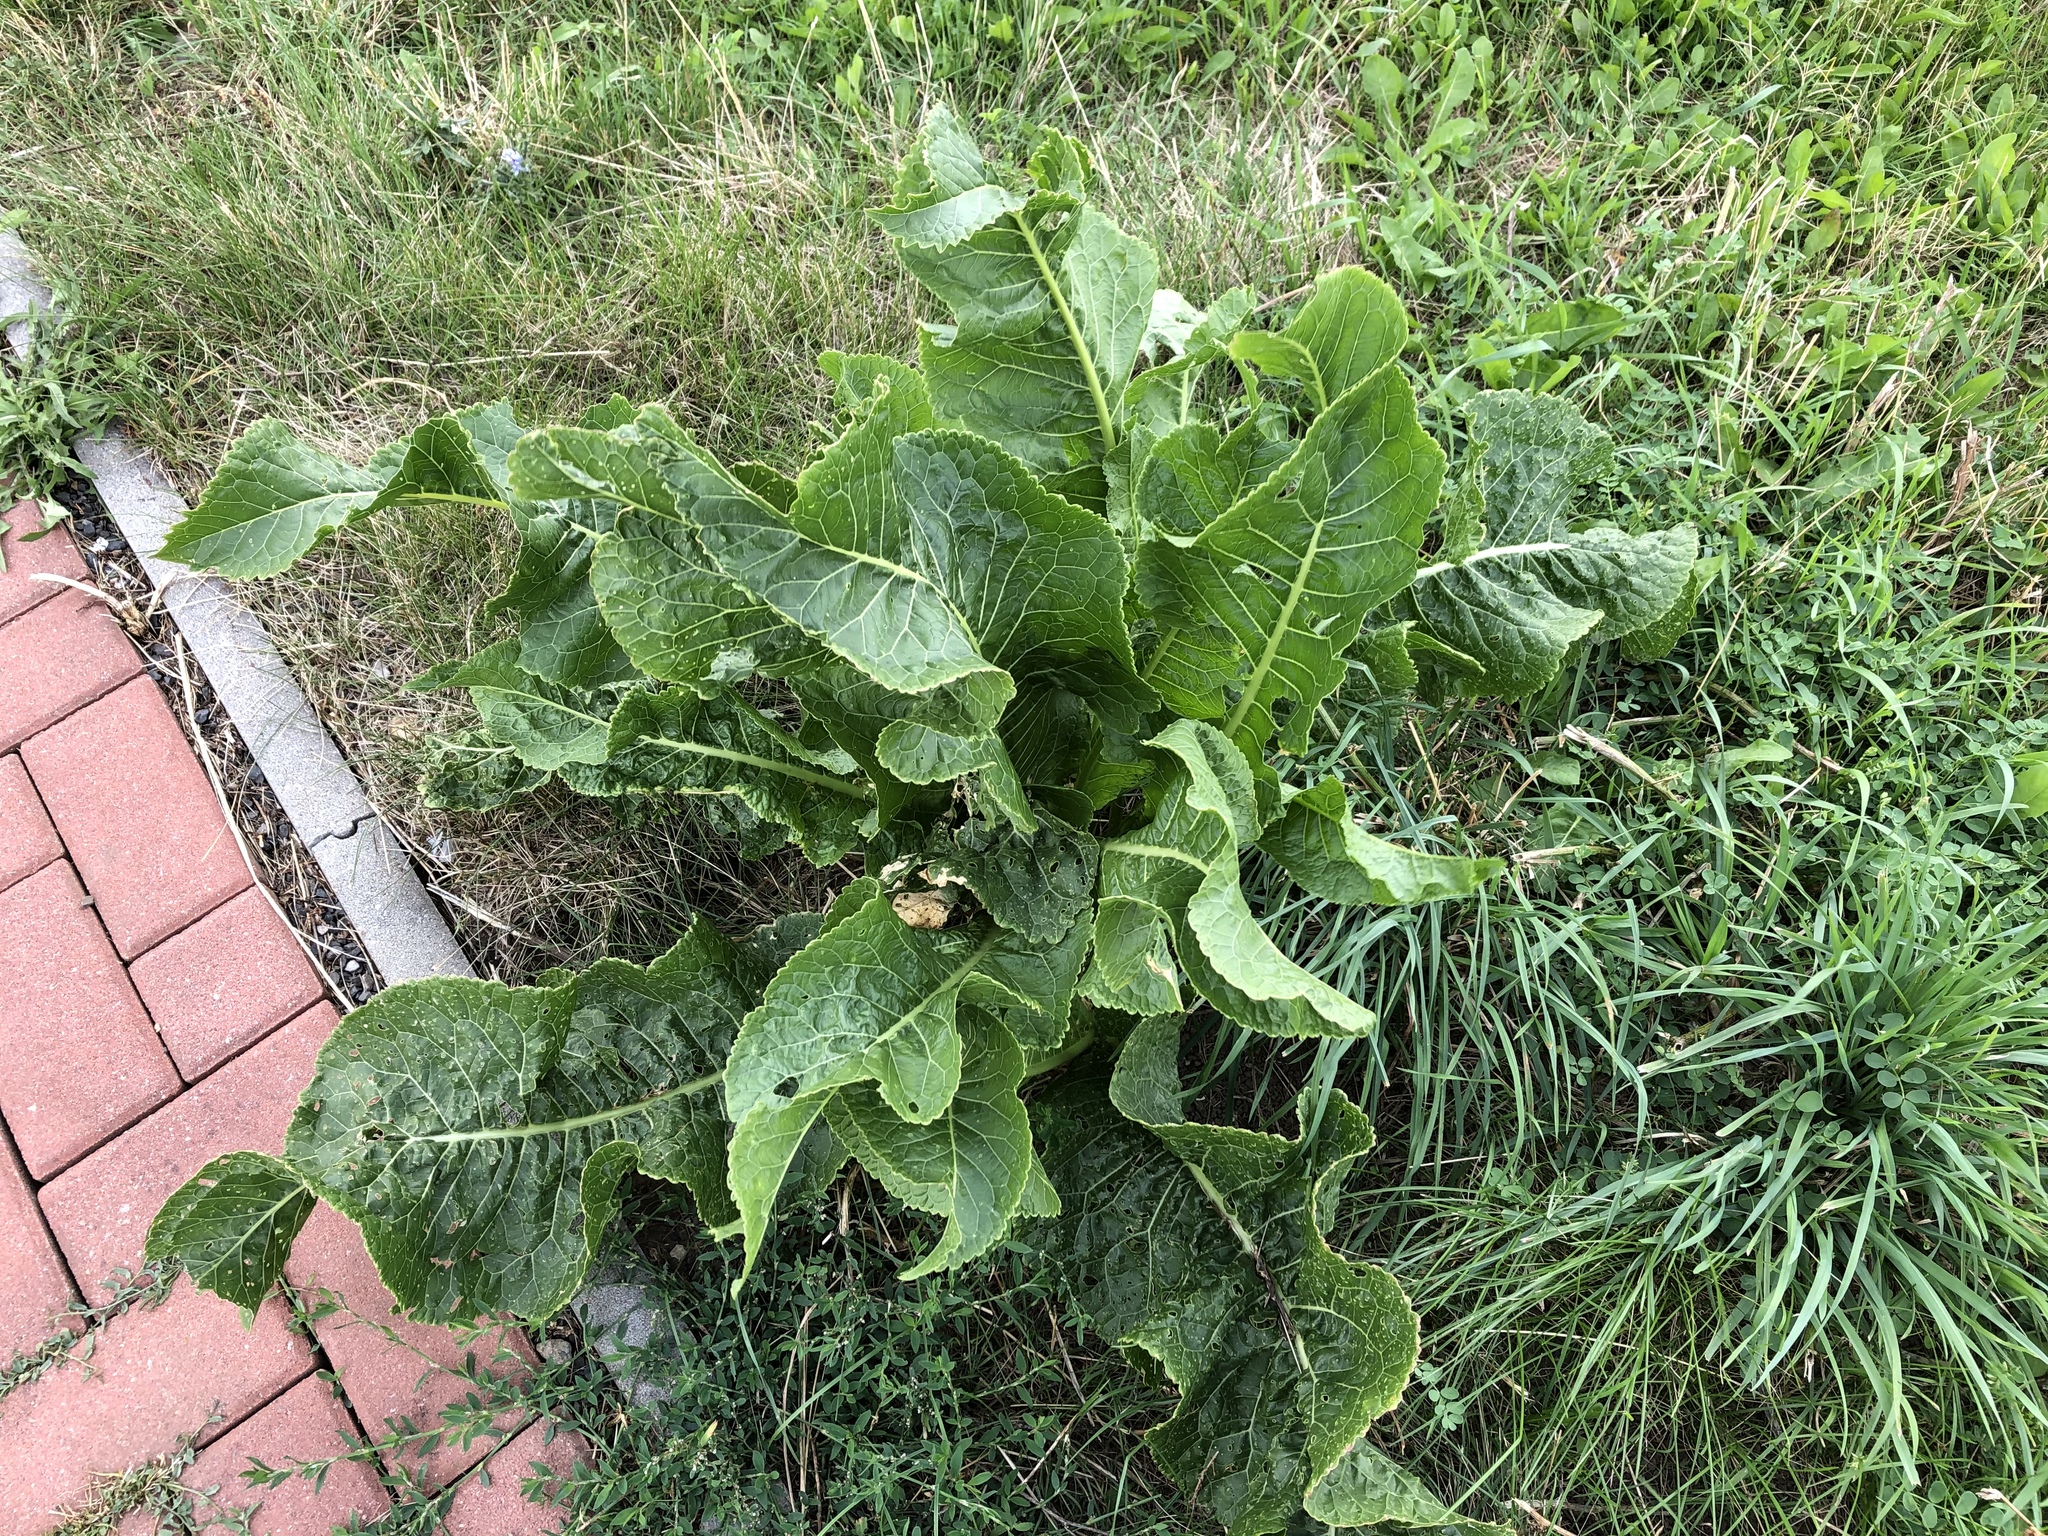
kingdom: Plantae
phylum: Tracheophyta
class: Magnoliopsida
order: Brassicales
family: Brassicaceae
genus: Armoracia
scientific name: Armoracia rusticana
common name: Horseradish
